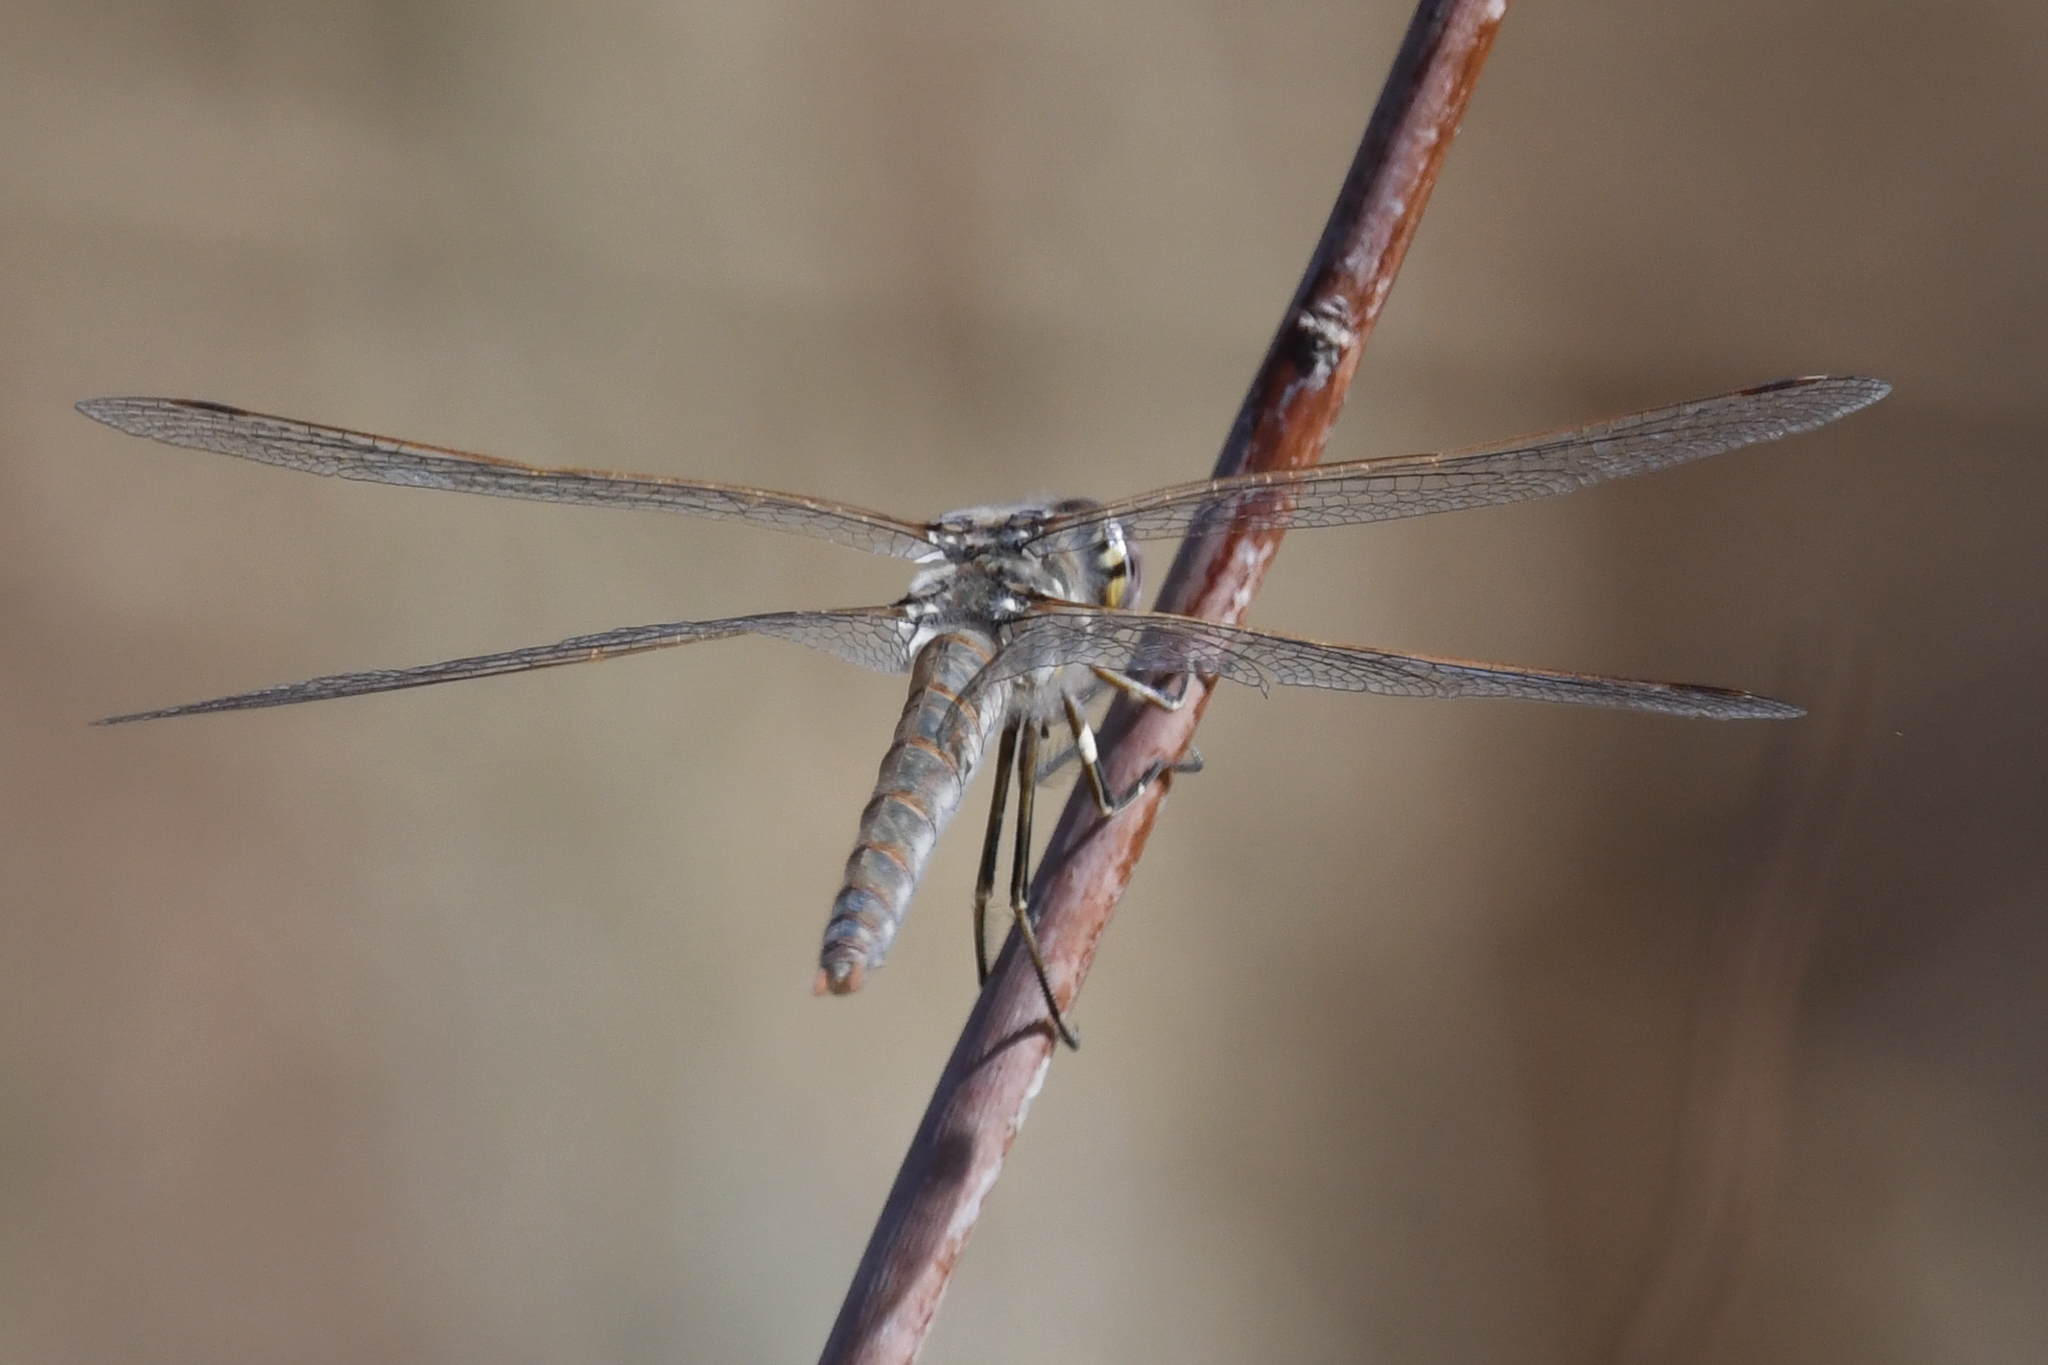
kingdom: Animalia
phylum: Arthropoda
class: Insecta
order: Odonata
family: Libellulidae
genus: Sympetrum
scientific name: Sympetrum corruptum
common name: Variegated meadowhawk
